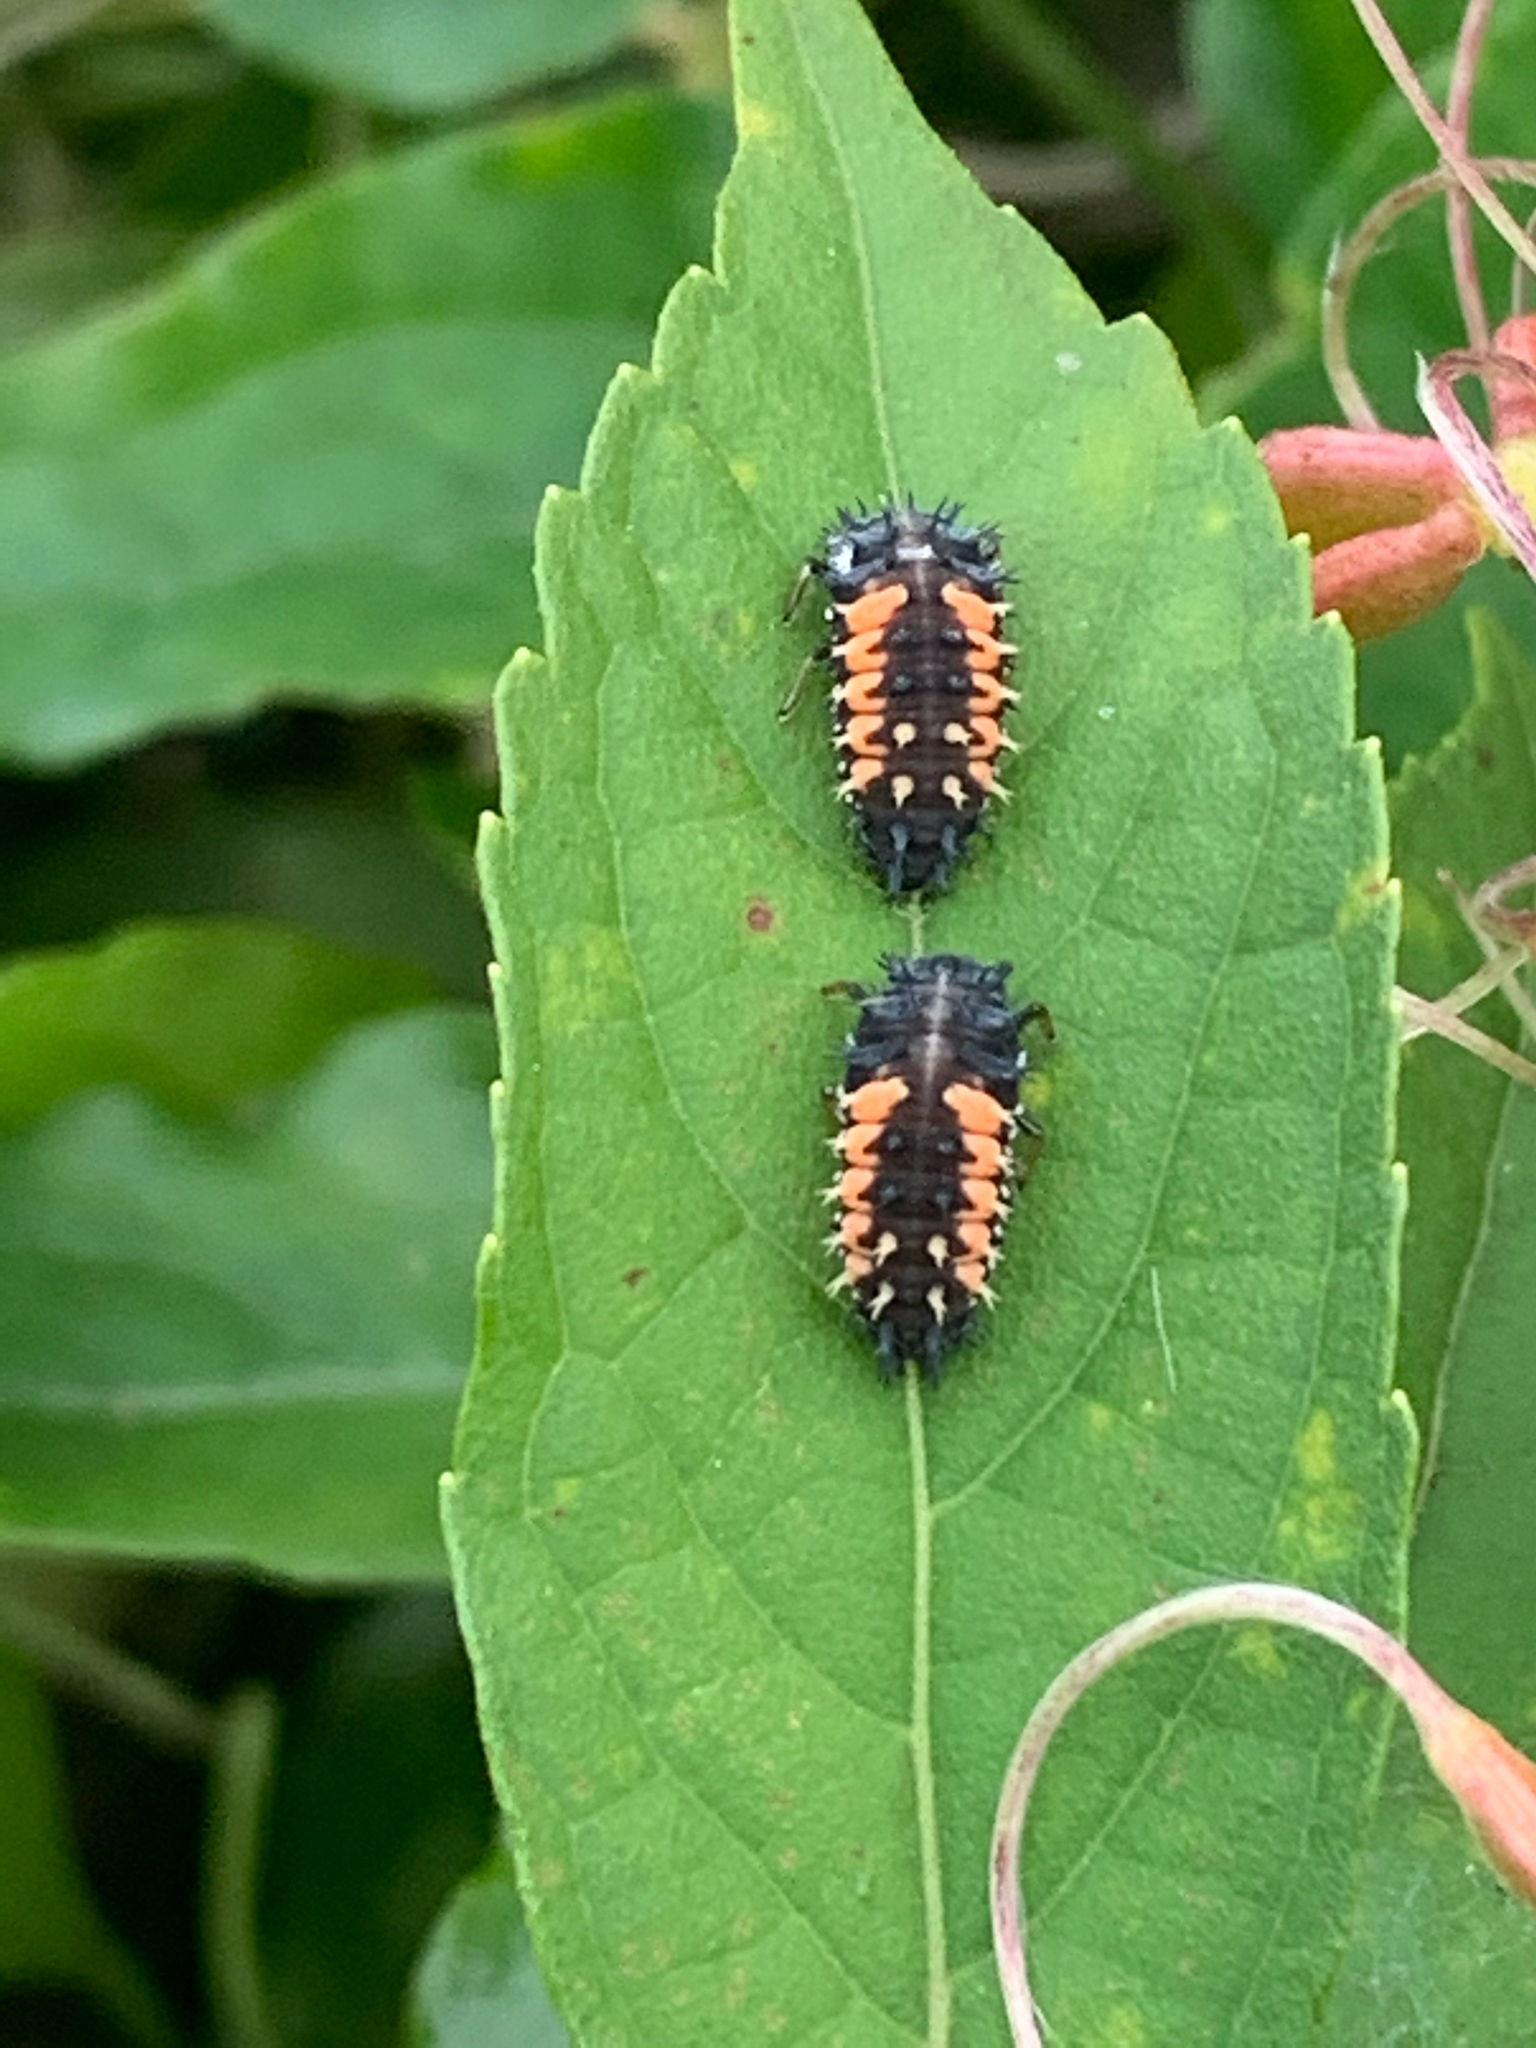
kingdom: Animalia
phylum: Arthropoda
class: Insecta
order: Coleoptera
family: Coccinellidae
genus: Harmonia
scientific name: Harmonia axyridis
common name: Harlequin ladybird
